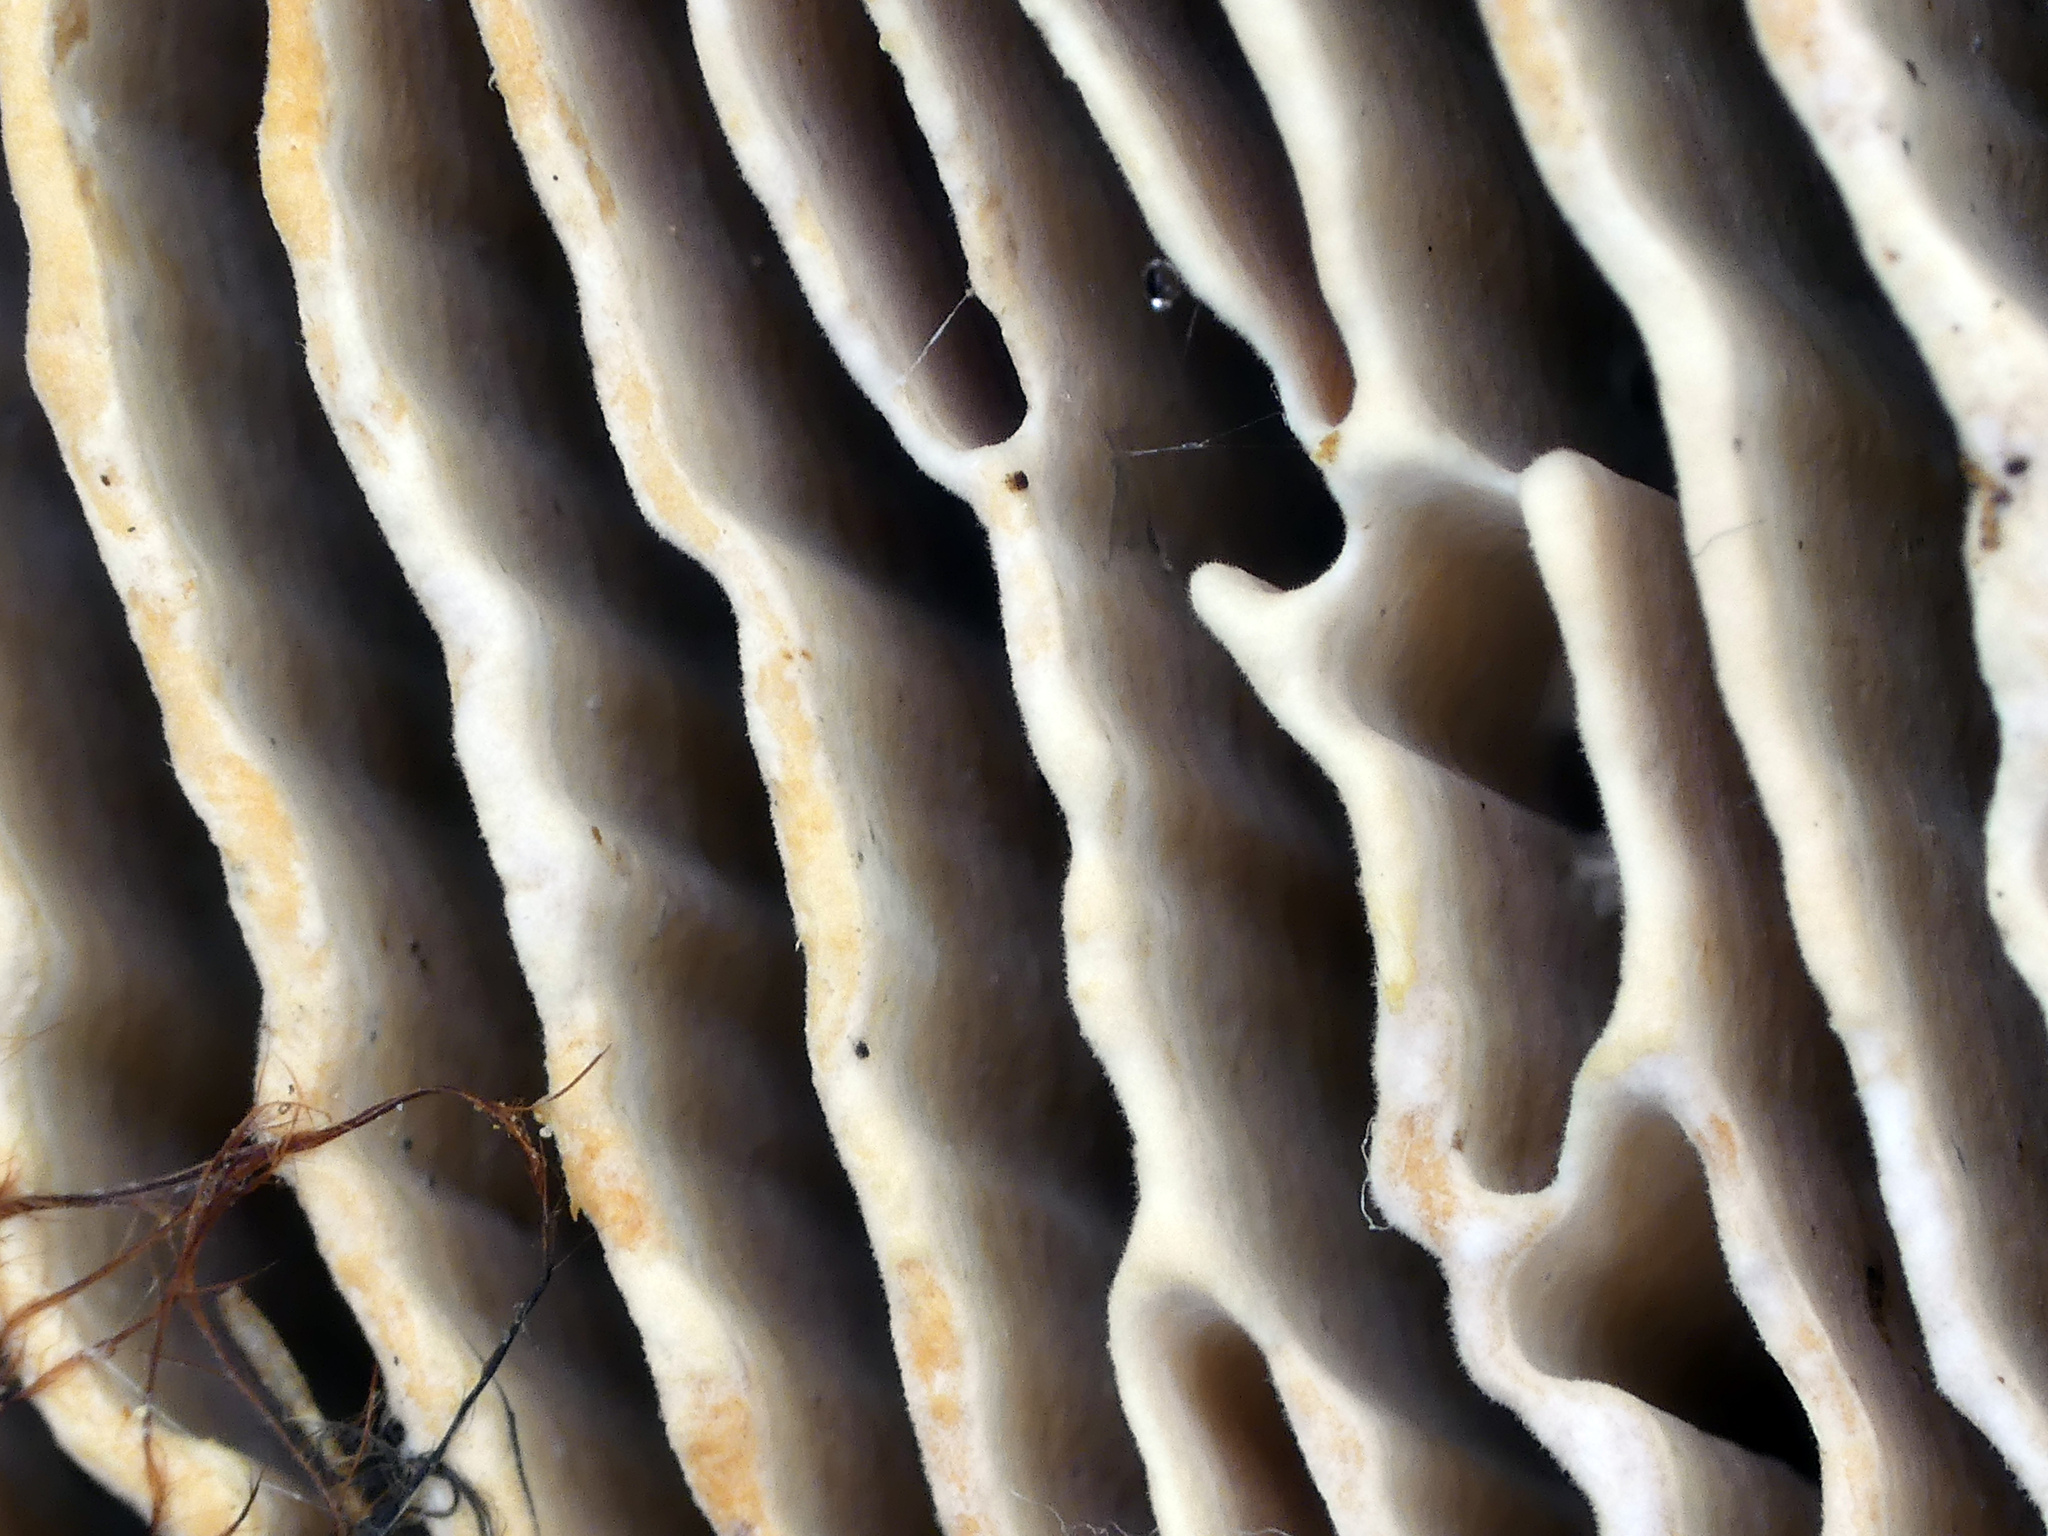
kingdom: Fungi
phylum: Basidiomycota
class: Agaricomycetes
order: Polyporales
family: Fomitopsidaceae
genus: Fomitopsis
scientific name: Fomitopsis
